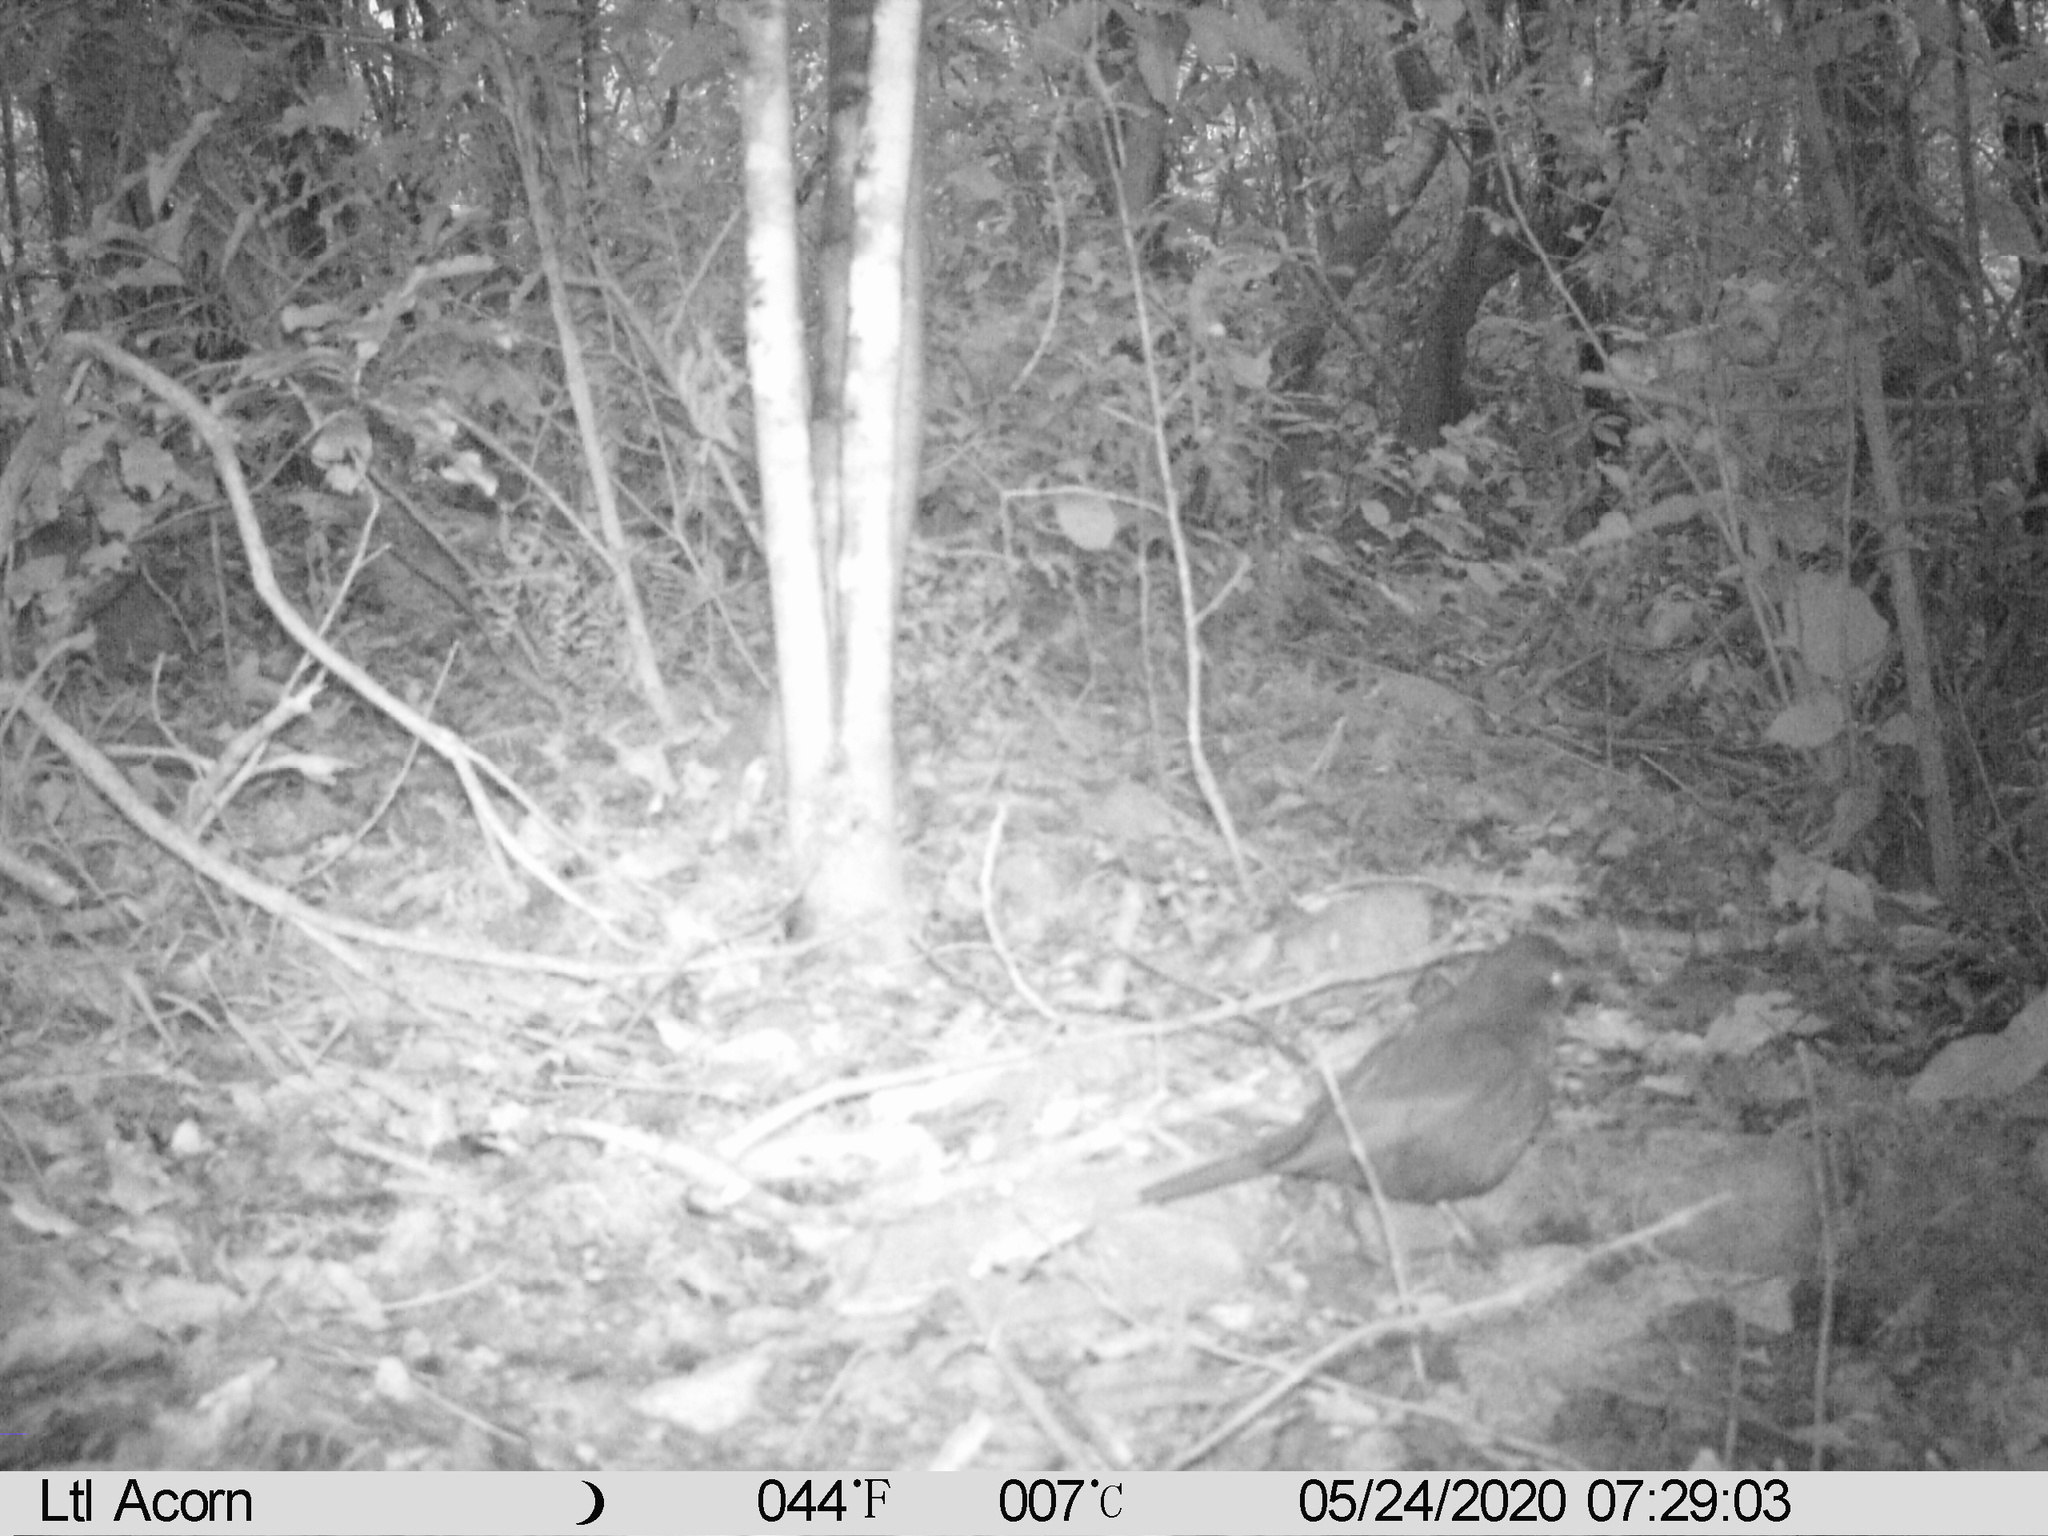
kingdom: Animalia
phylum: Chordata
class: Aves
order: Passeriformes
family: Turdidae
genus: Turdus
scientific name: Turdus merula
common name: Common blackbird
